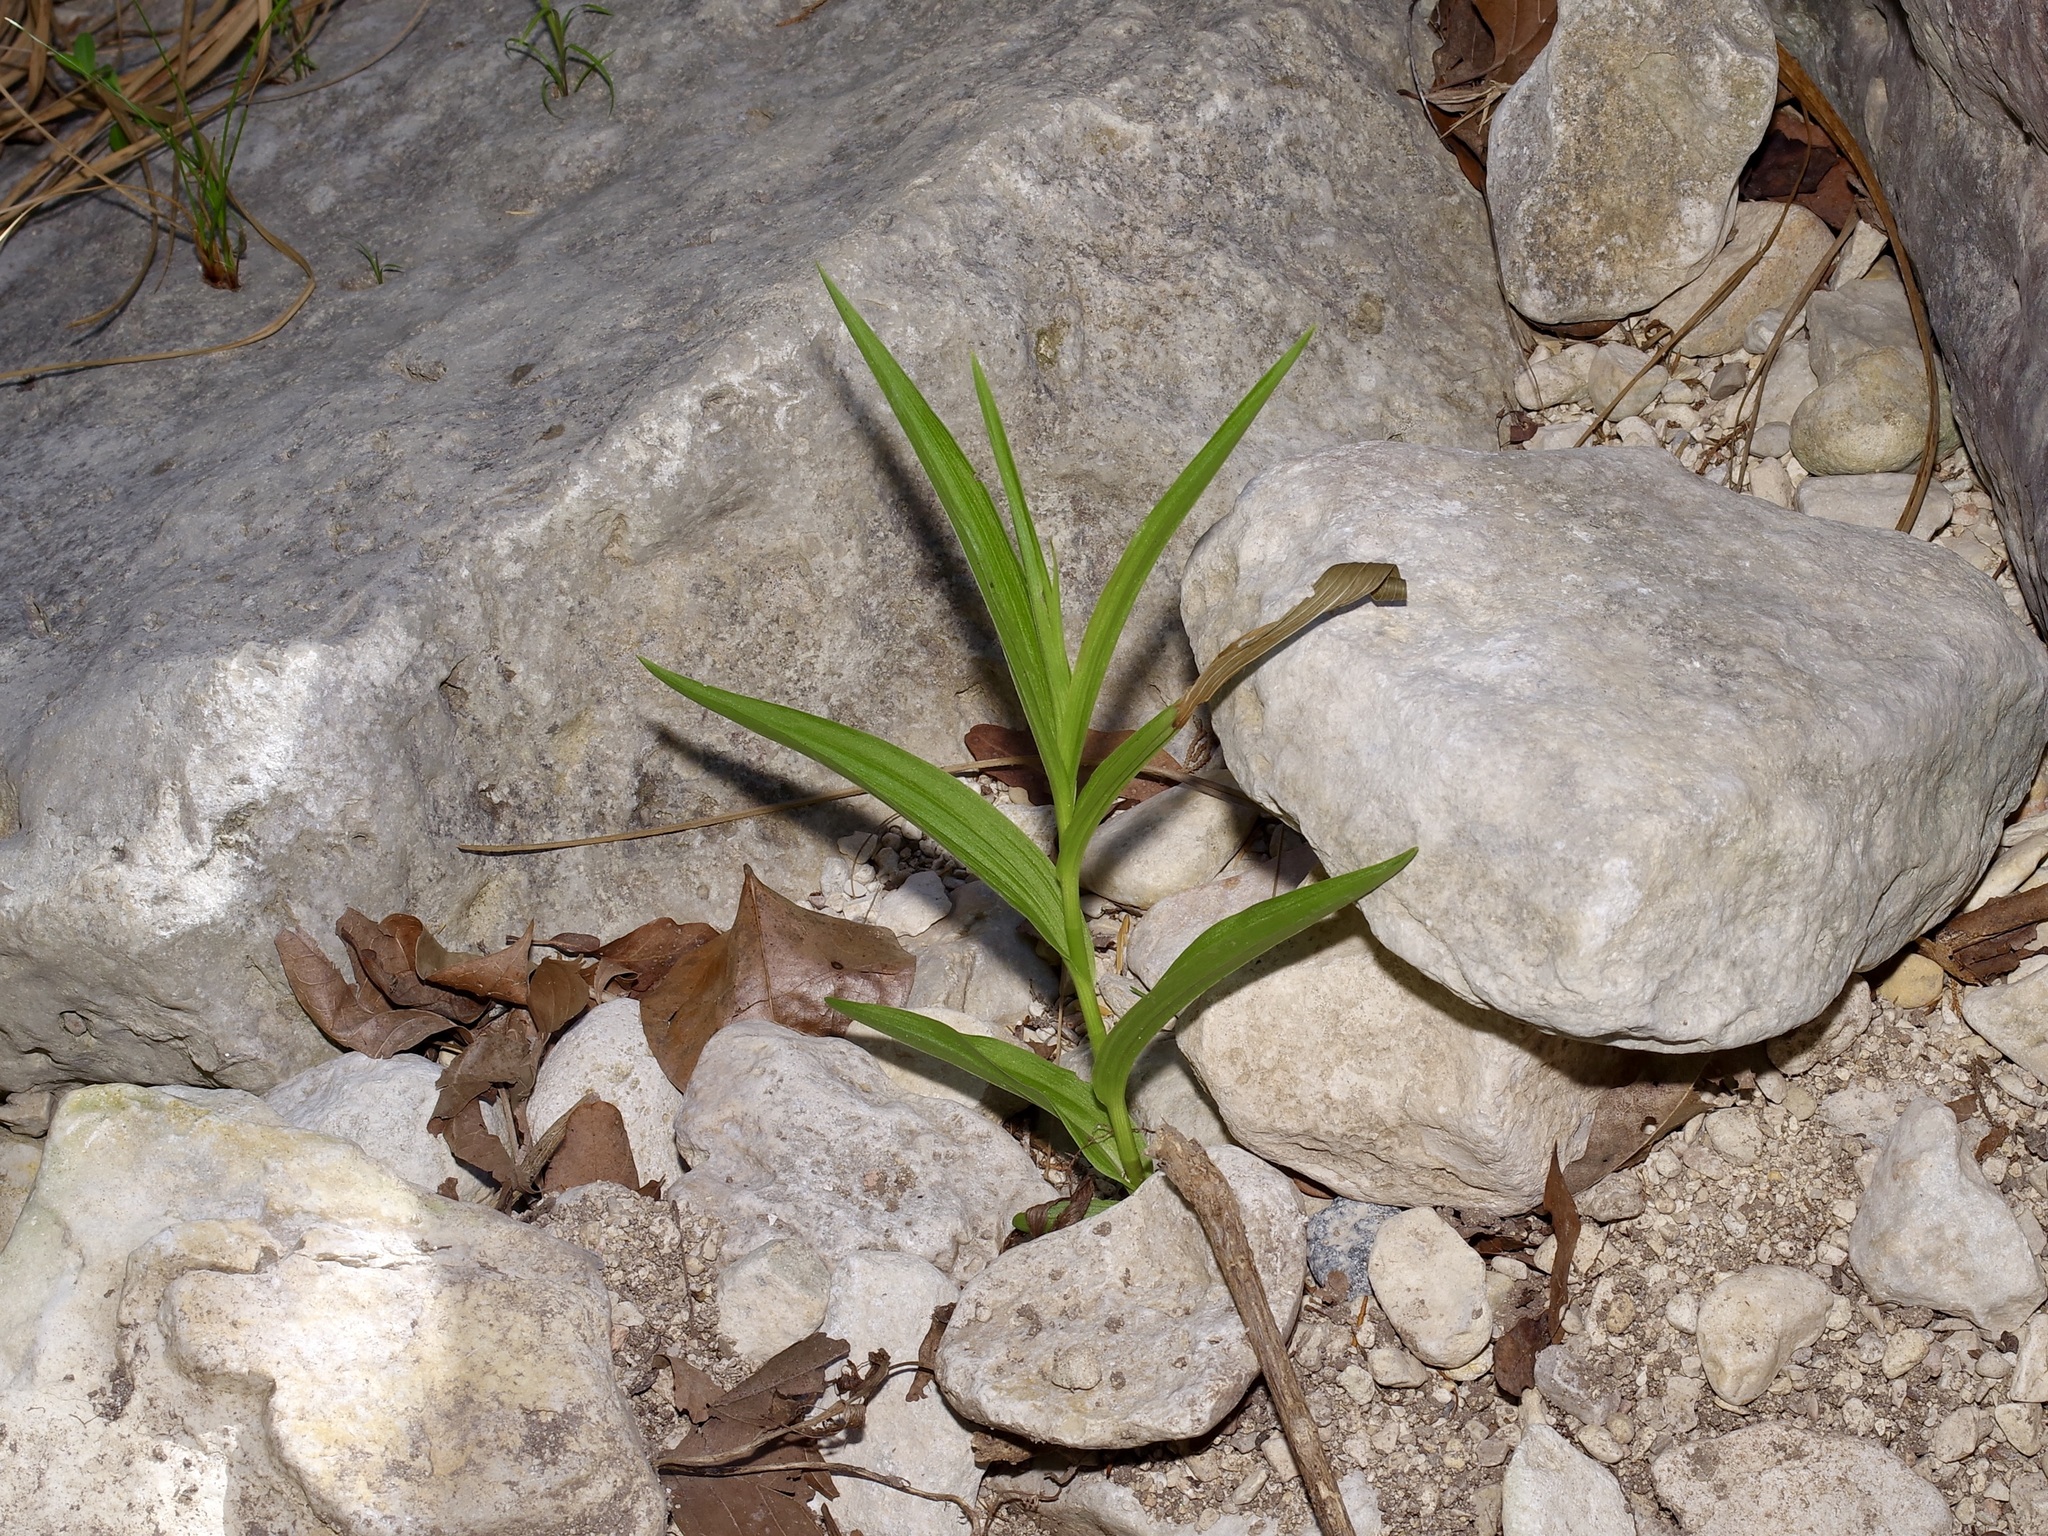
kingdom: Plantae
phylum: Tracheophyta
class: Liliopsida
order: Asparagales
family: Orchidaceae
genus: Epipactis
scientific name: Epipactis gigantea
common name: Chatterbox
